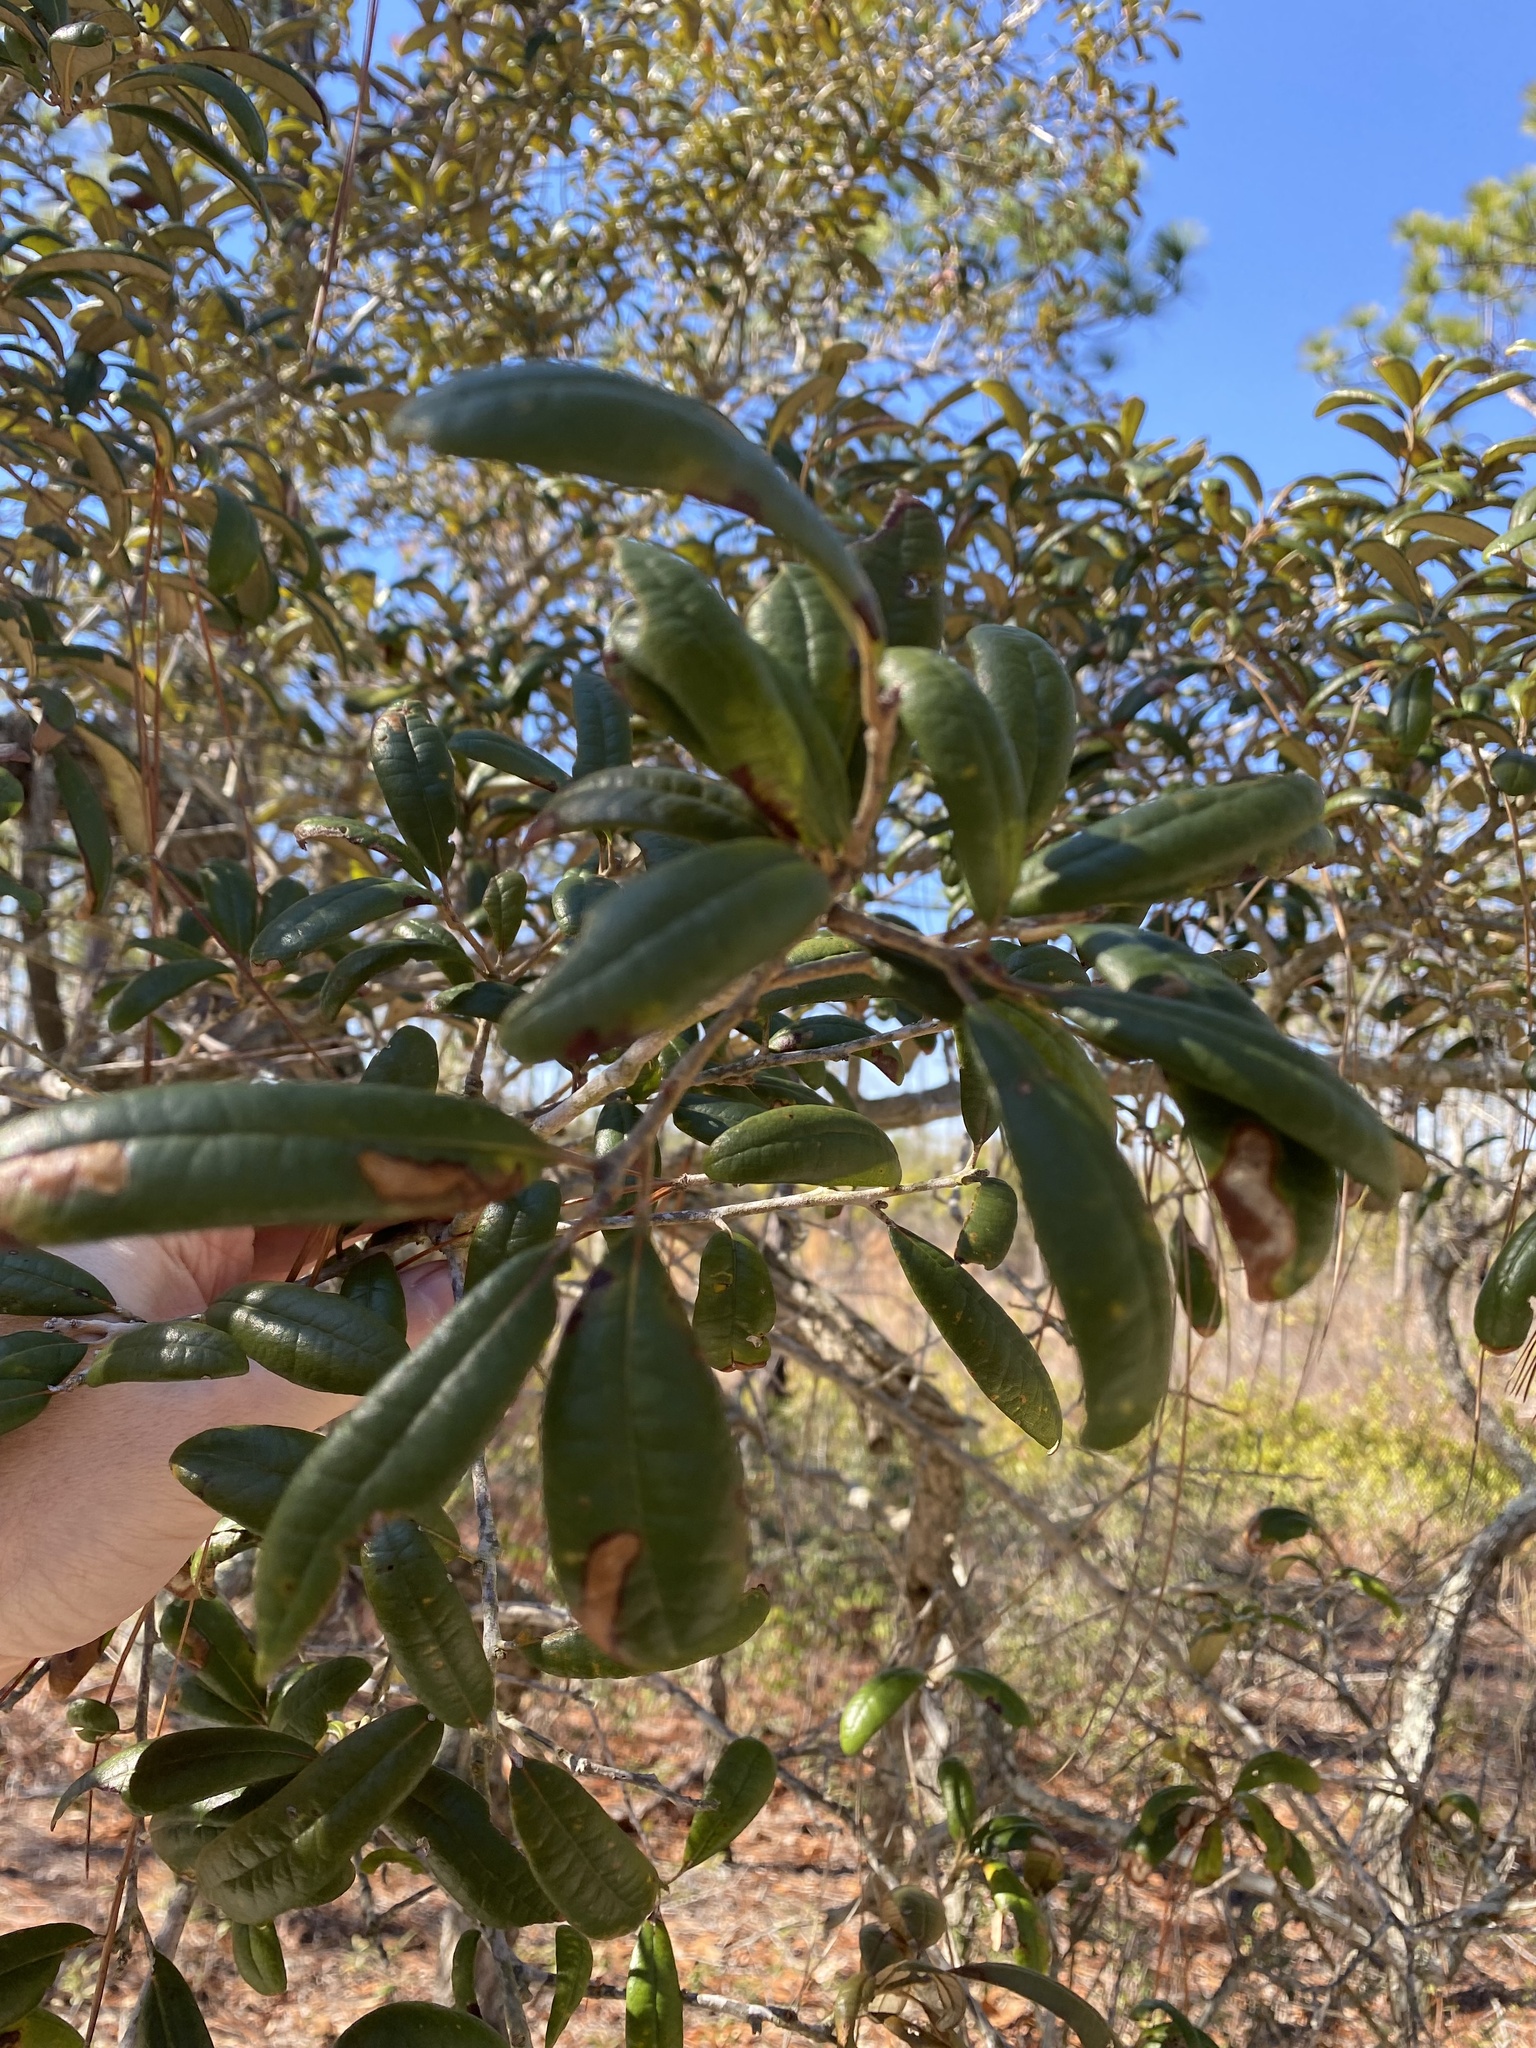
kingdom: Plantae
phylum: Tracheophyta
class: Magnoliopsida
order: Fagales
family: Fagaceae
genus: Quercus
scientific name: Quercus geminata
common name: Sand live oak
